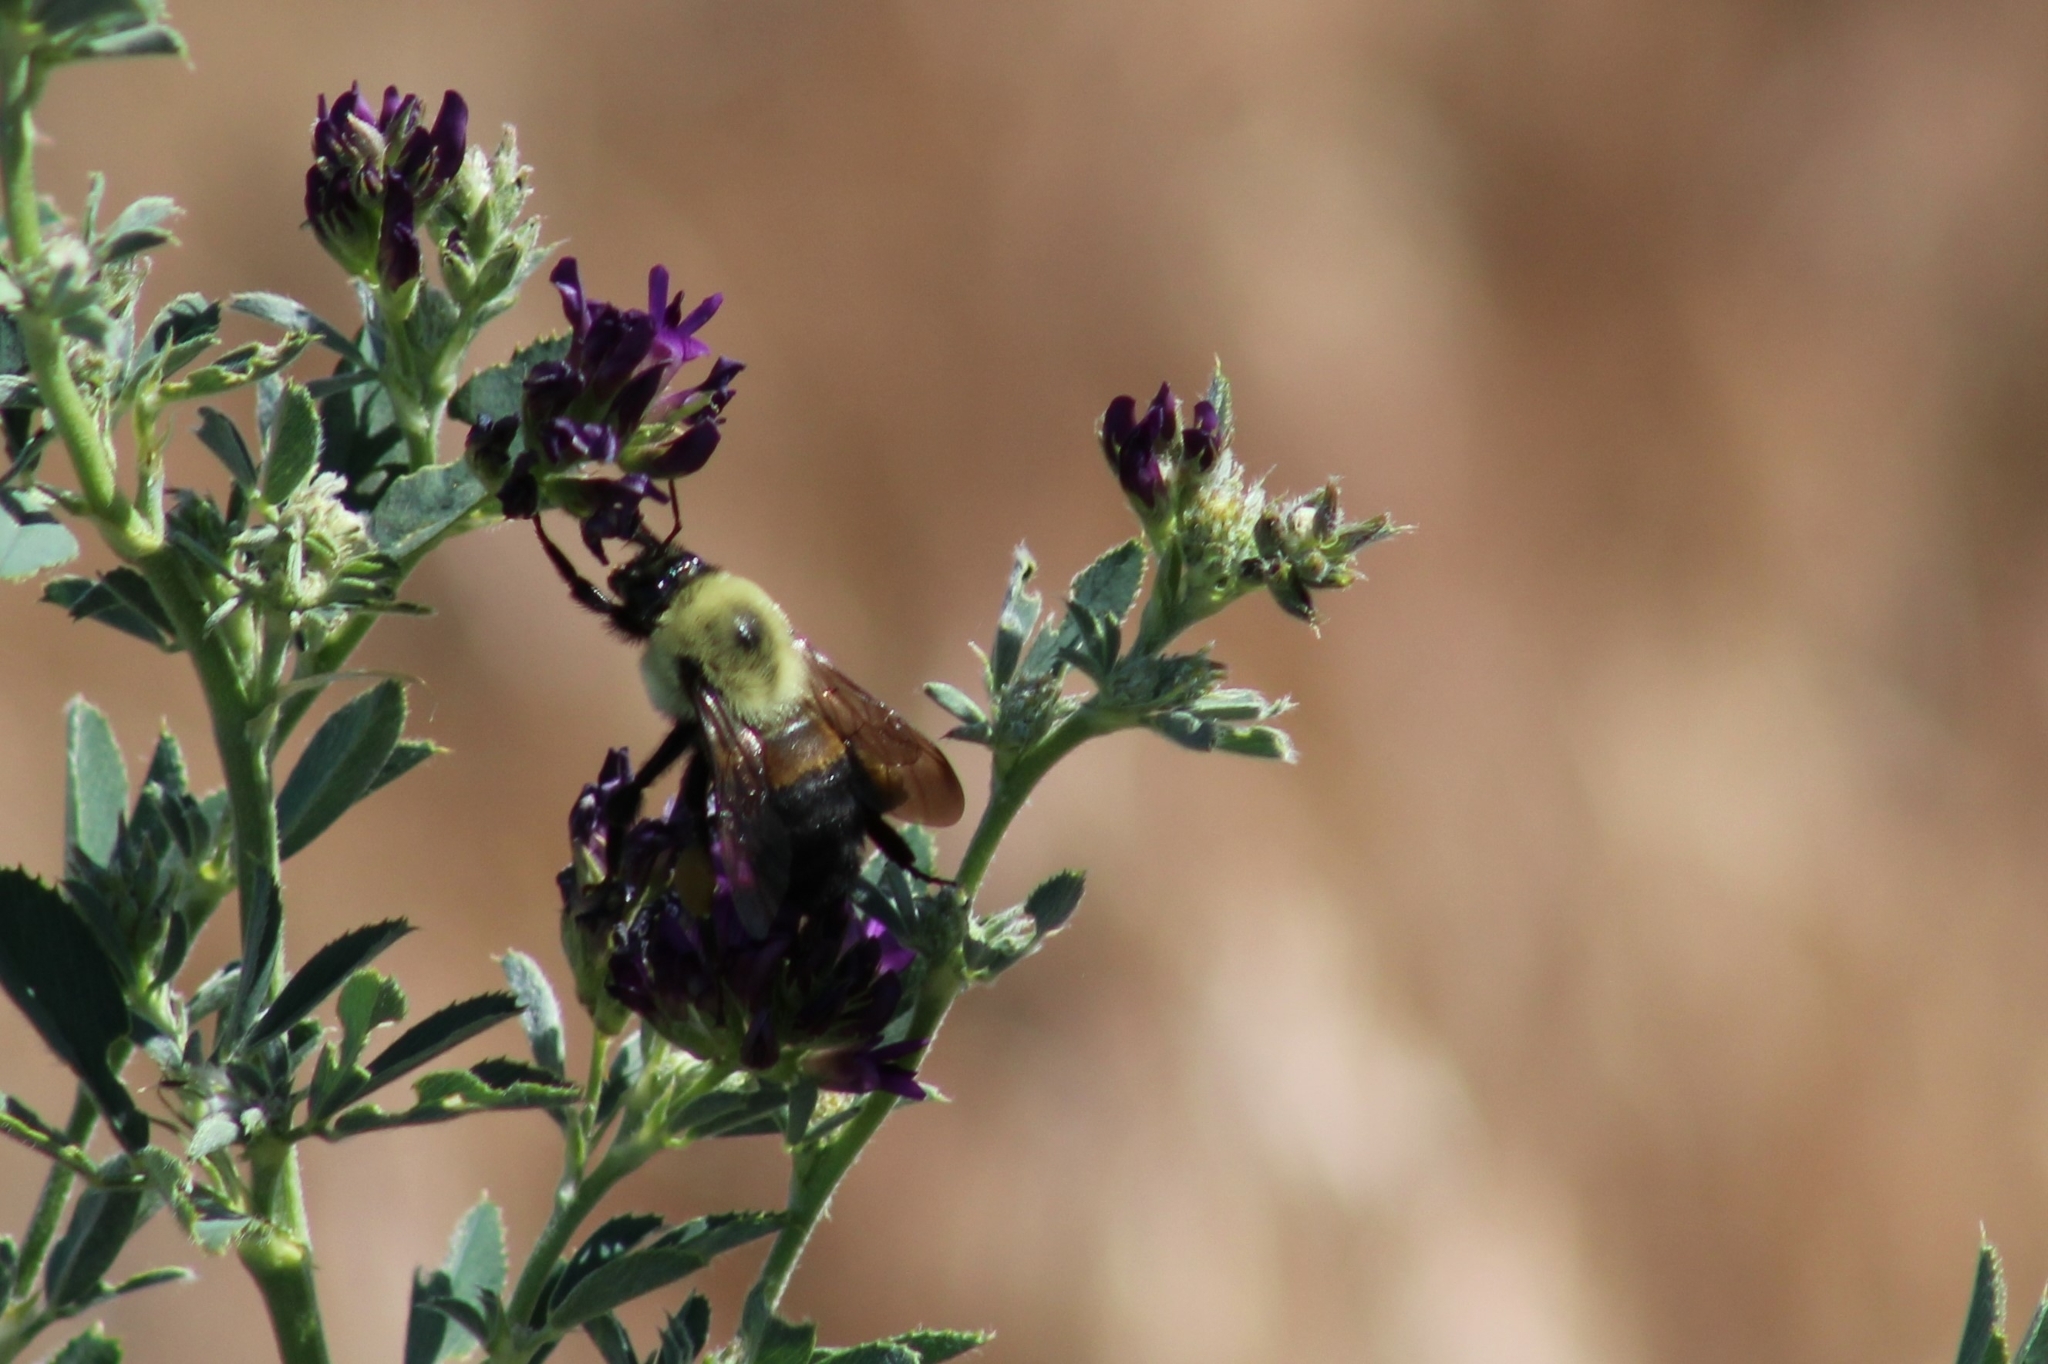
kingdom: Animalia
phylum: Arthropoda
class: Insecta
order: Hymenoptera
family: Apidae
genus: Bombus
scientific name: Bombus griseocollis
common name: Brown-belted bumble bee
